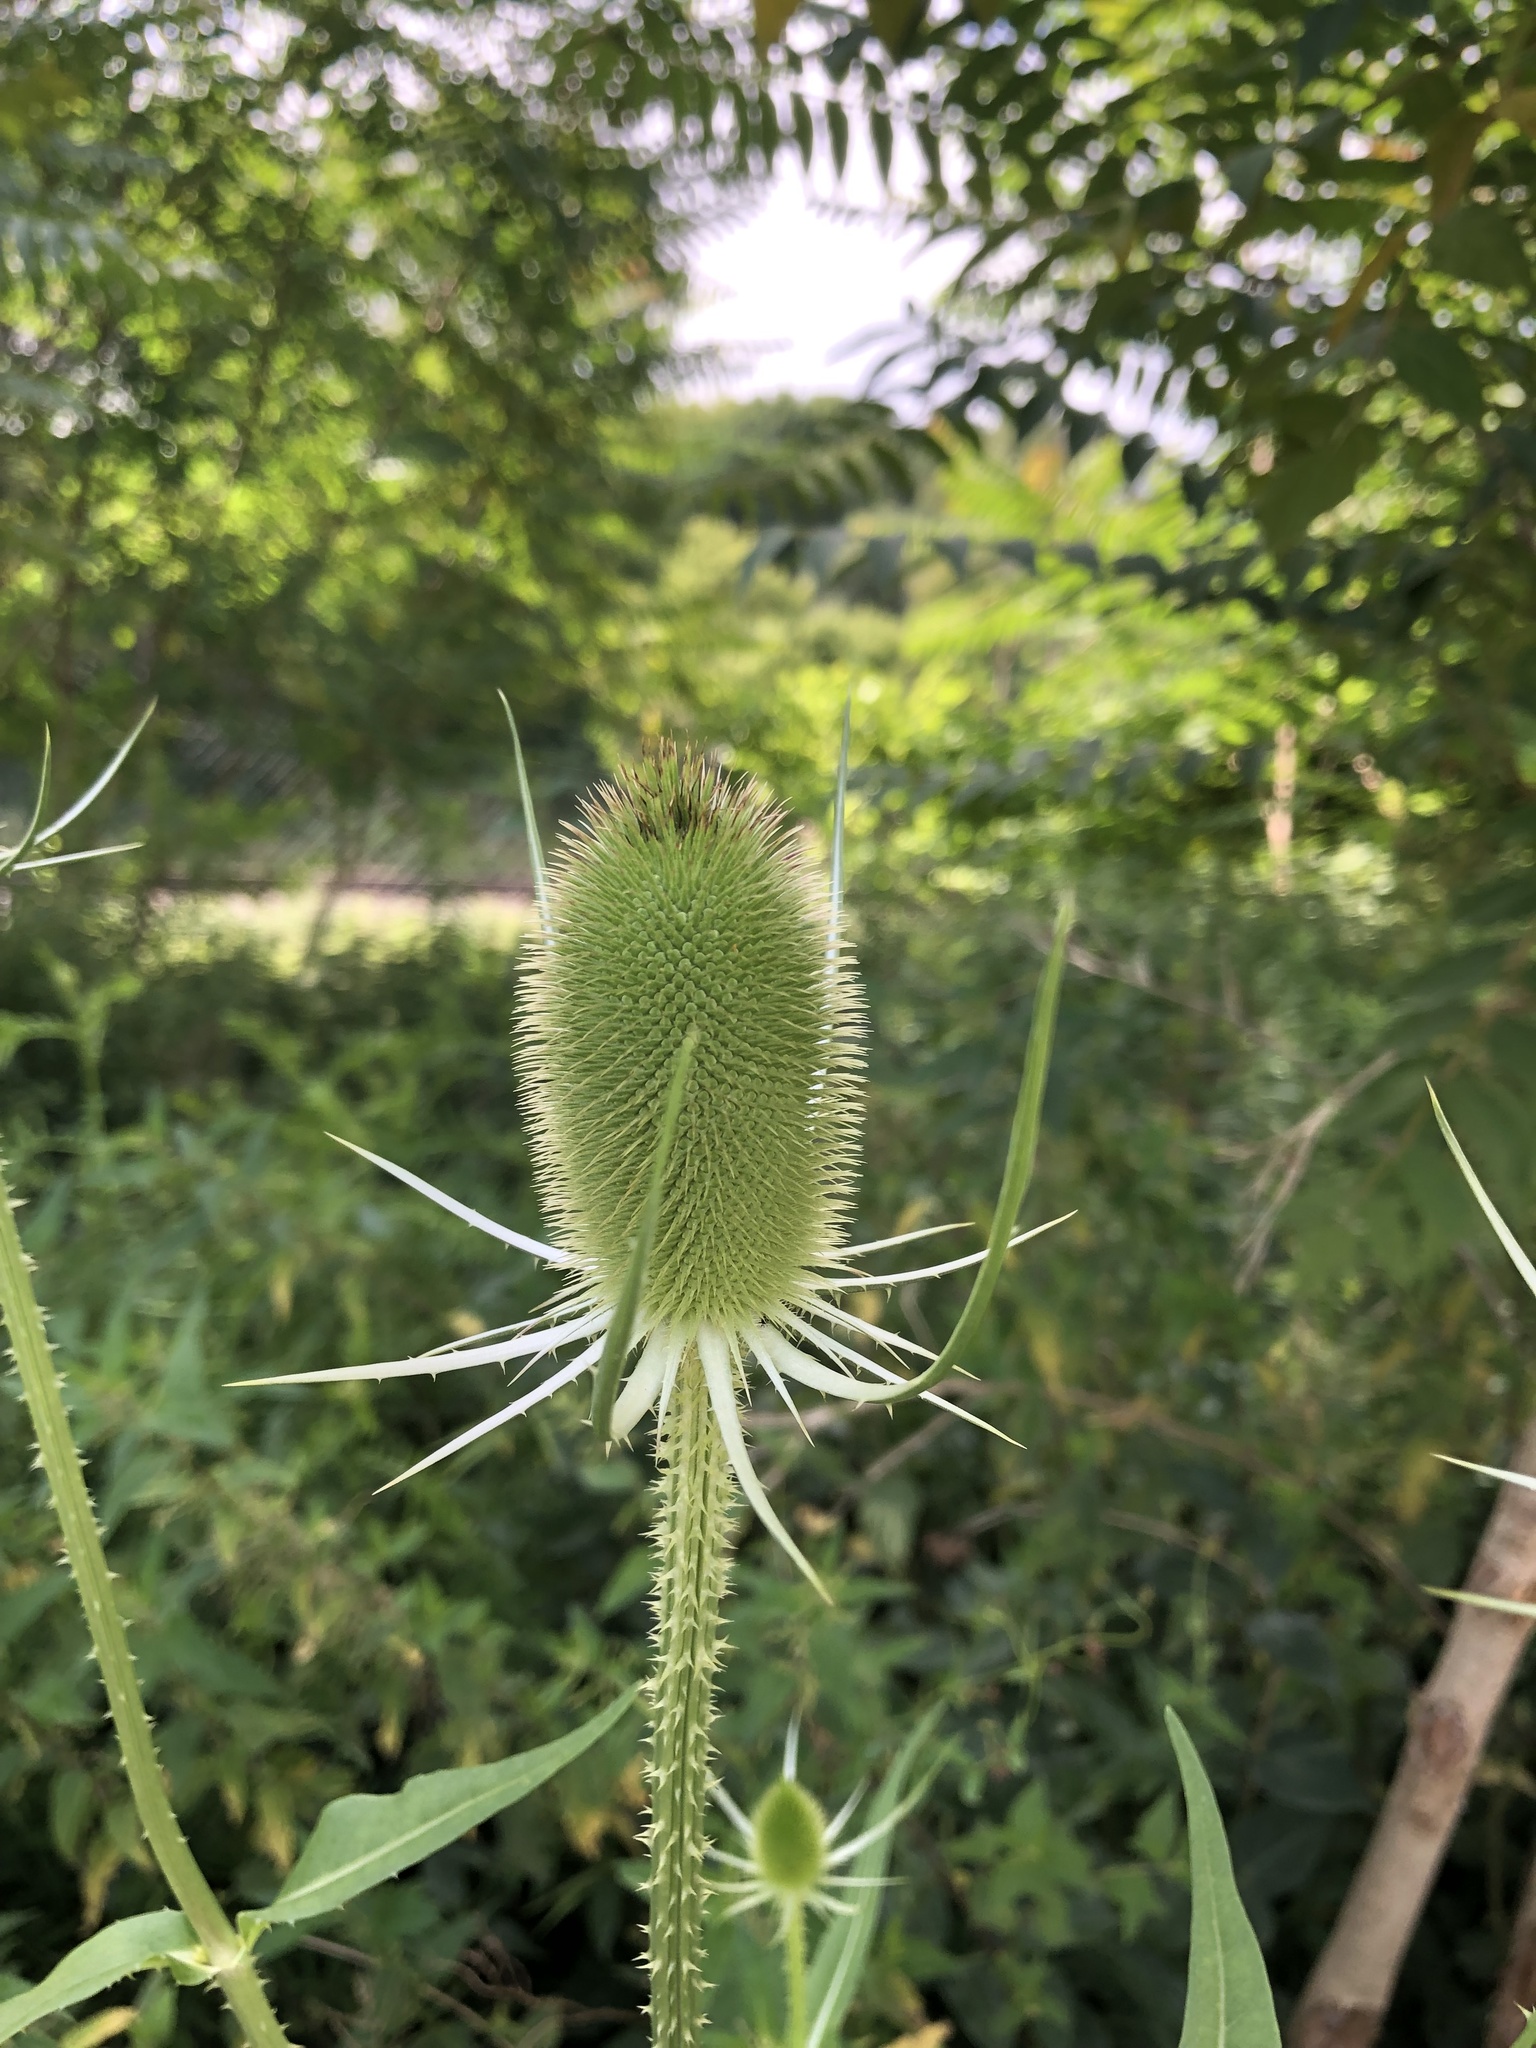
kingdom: Plantae
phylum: Tracheophyta
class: Magnoliopsida
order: Dipsacales
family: Caprifoliaceae
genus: Dipsacus
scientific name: Dipsacus fullonum
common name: Teasel
